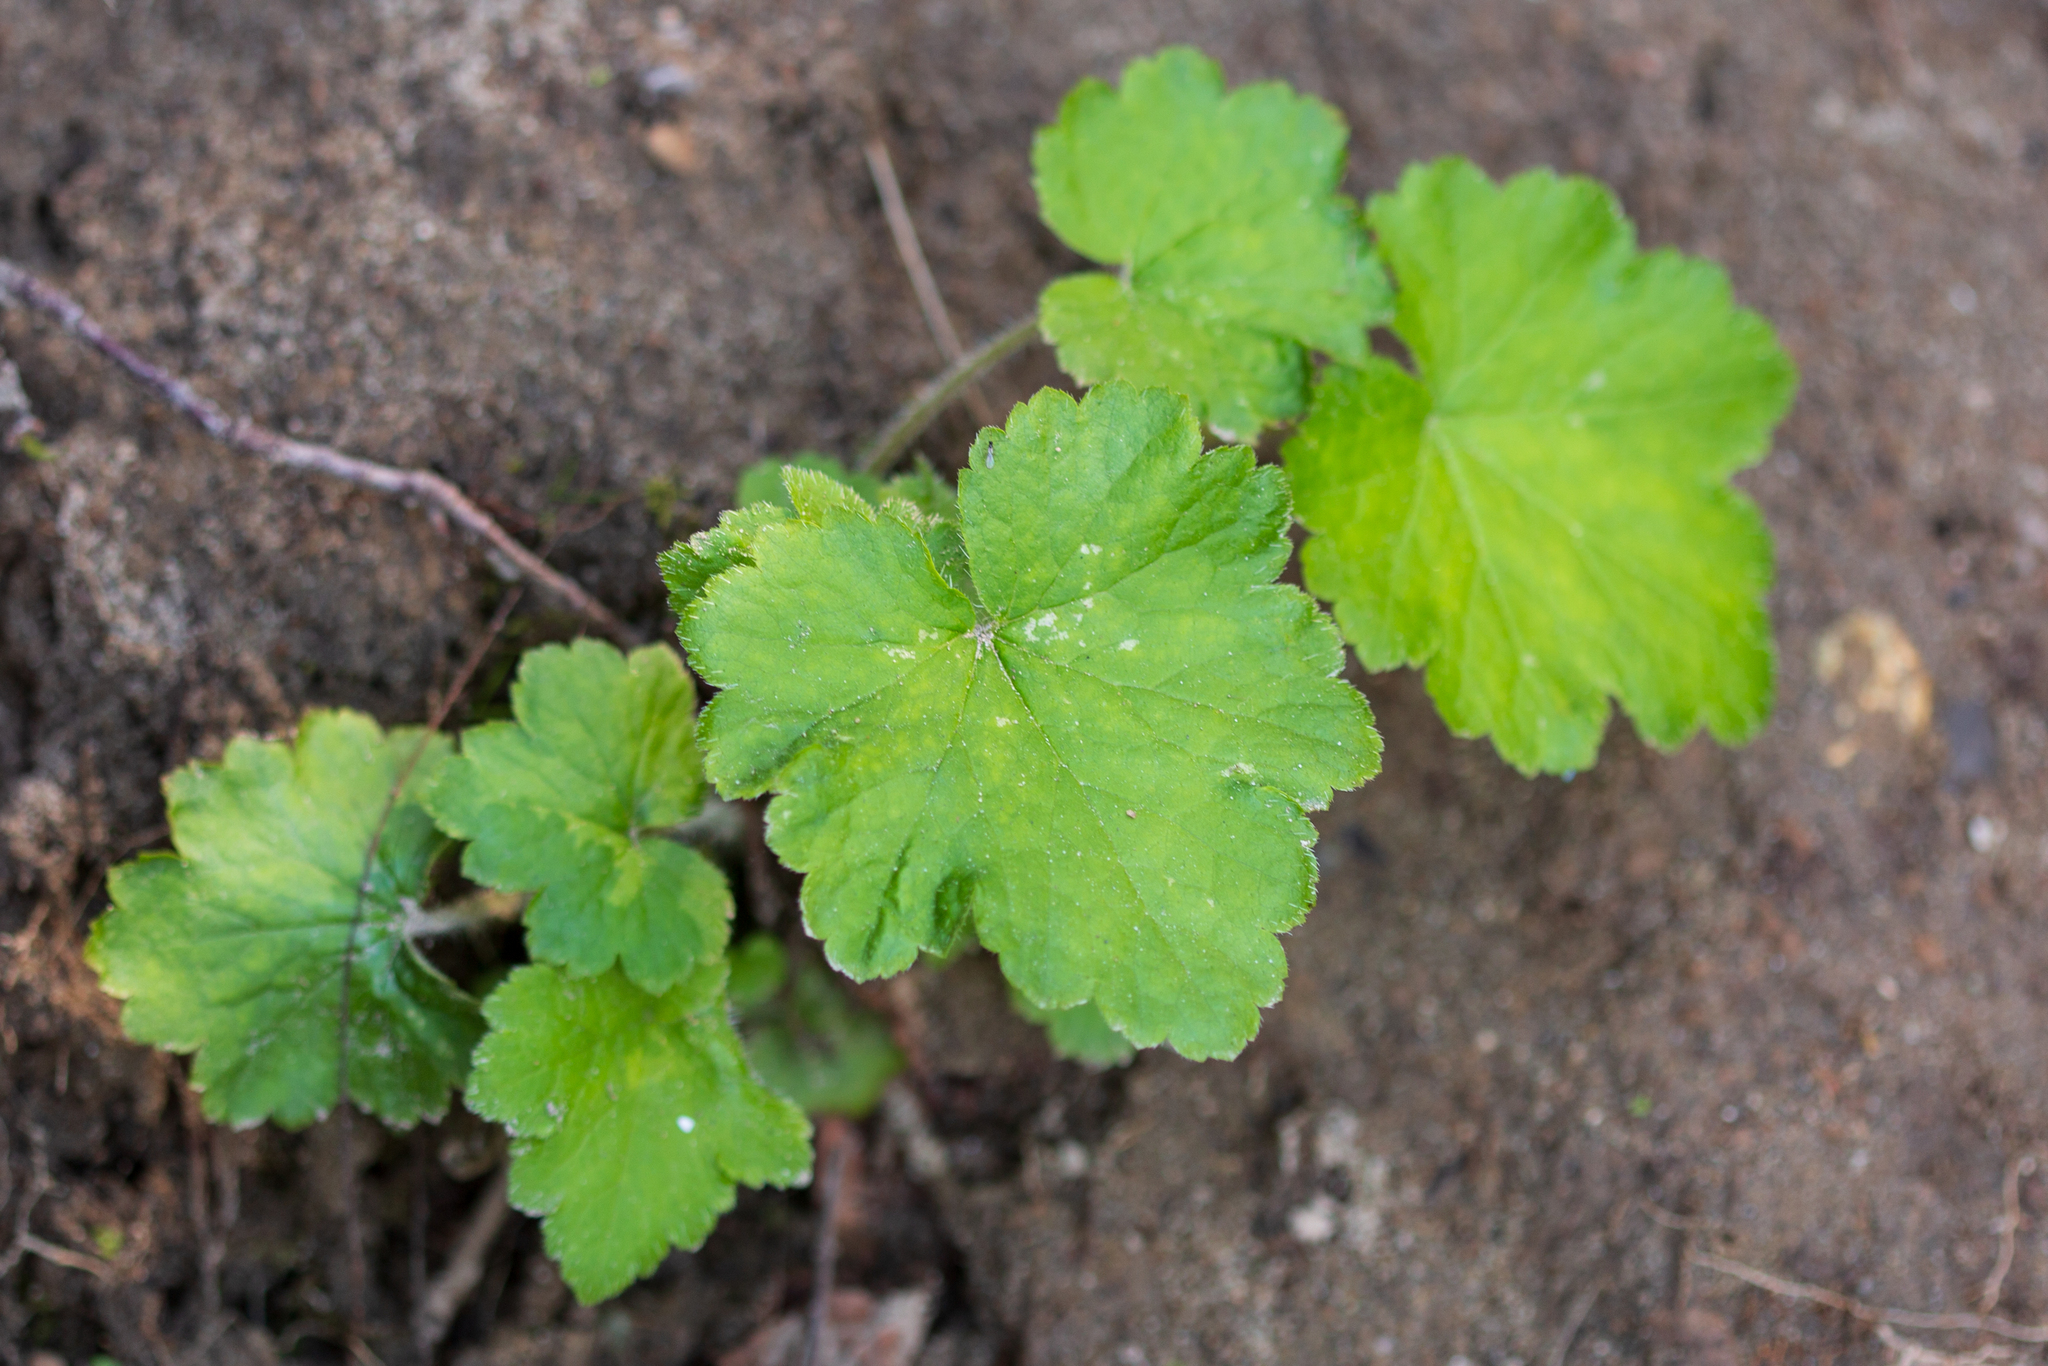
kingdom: Plantae
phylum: Tracheophyta
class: Magnoliopsida
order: Saxifragales
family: Saxifragaceae
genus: Tellima
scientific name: Tellima grandiflora
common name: Fringecups
